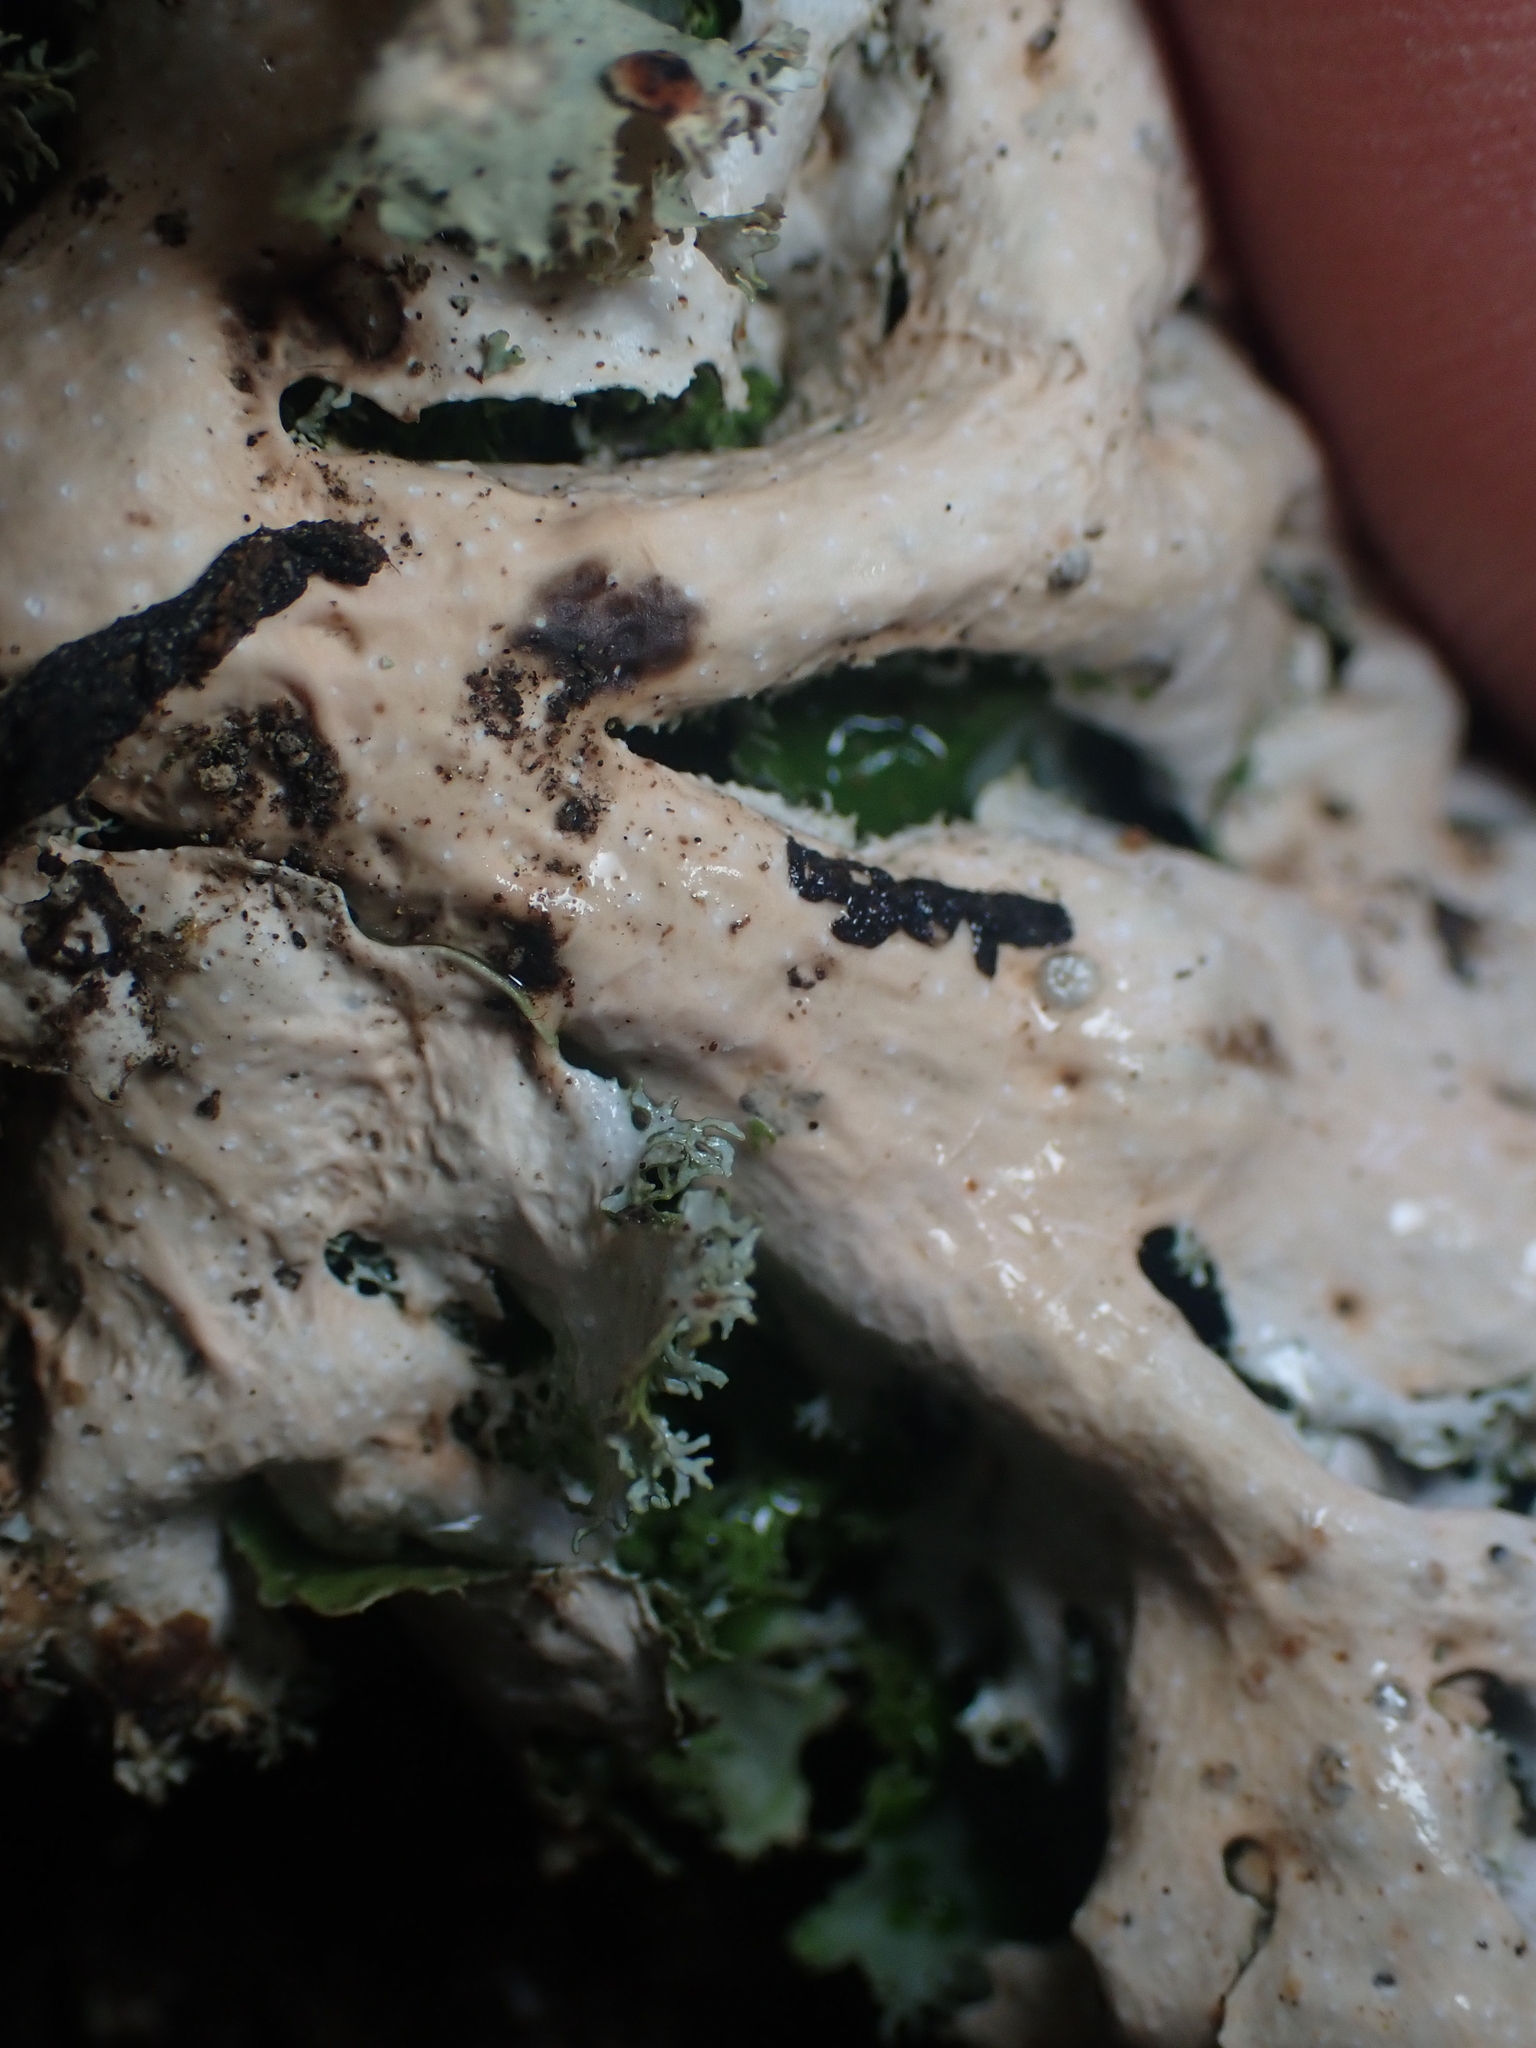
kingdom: Fungi
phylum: Ascomycota
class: Lecanoromycetes
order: Peltigerales
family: Lobariaceae
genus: Pseudocyphellaria
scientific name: Pseudocyphellaria multifida
